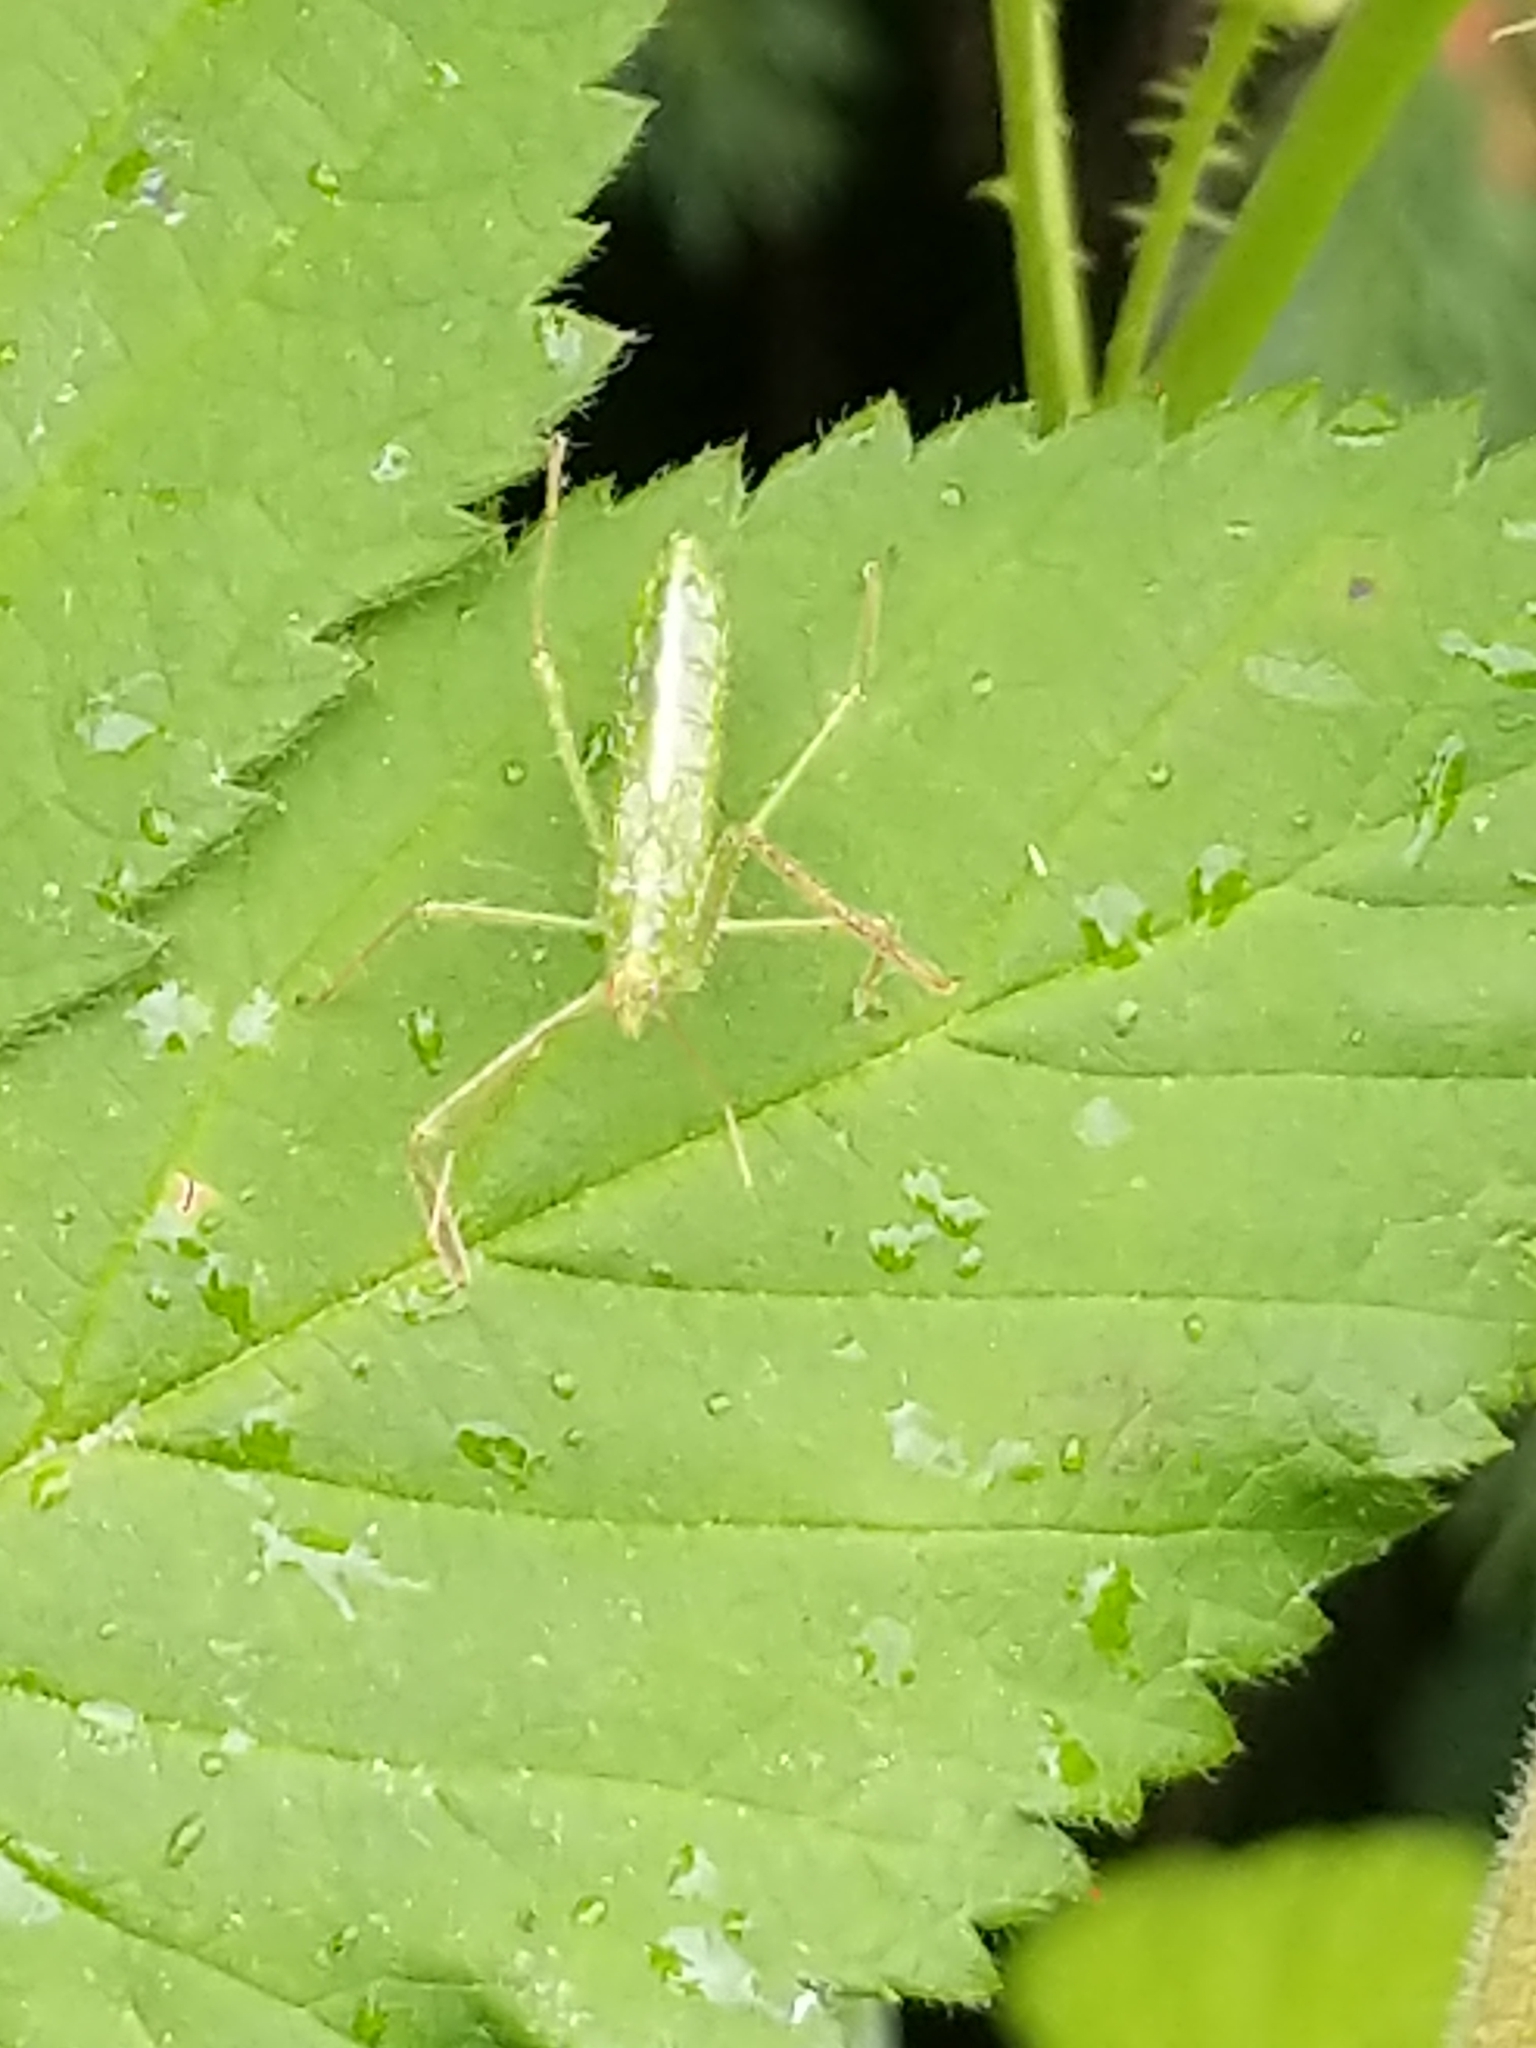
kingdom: Animalia
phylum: Arthropoda
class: Insecta
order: Hemiptera
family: Reduviidae
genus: Zelus
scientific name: Zelus luridus
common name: Pale green assassin bug
